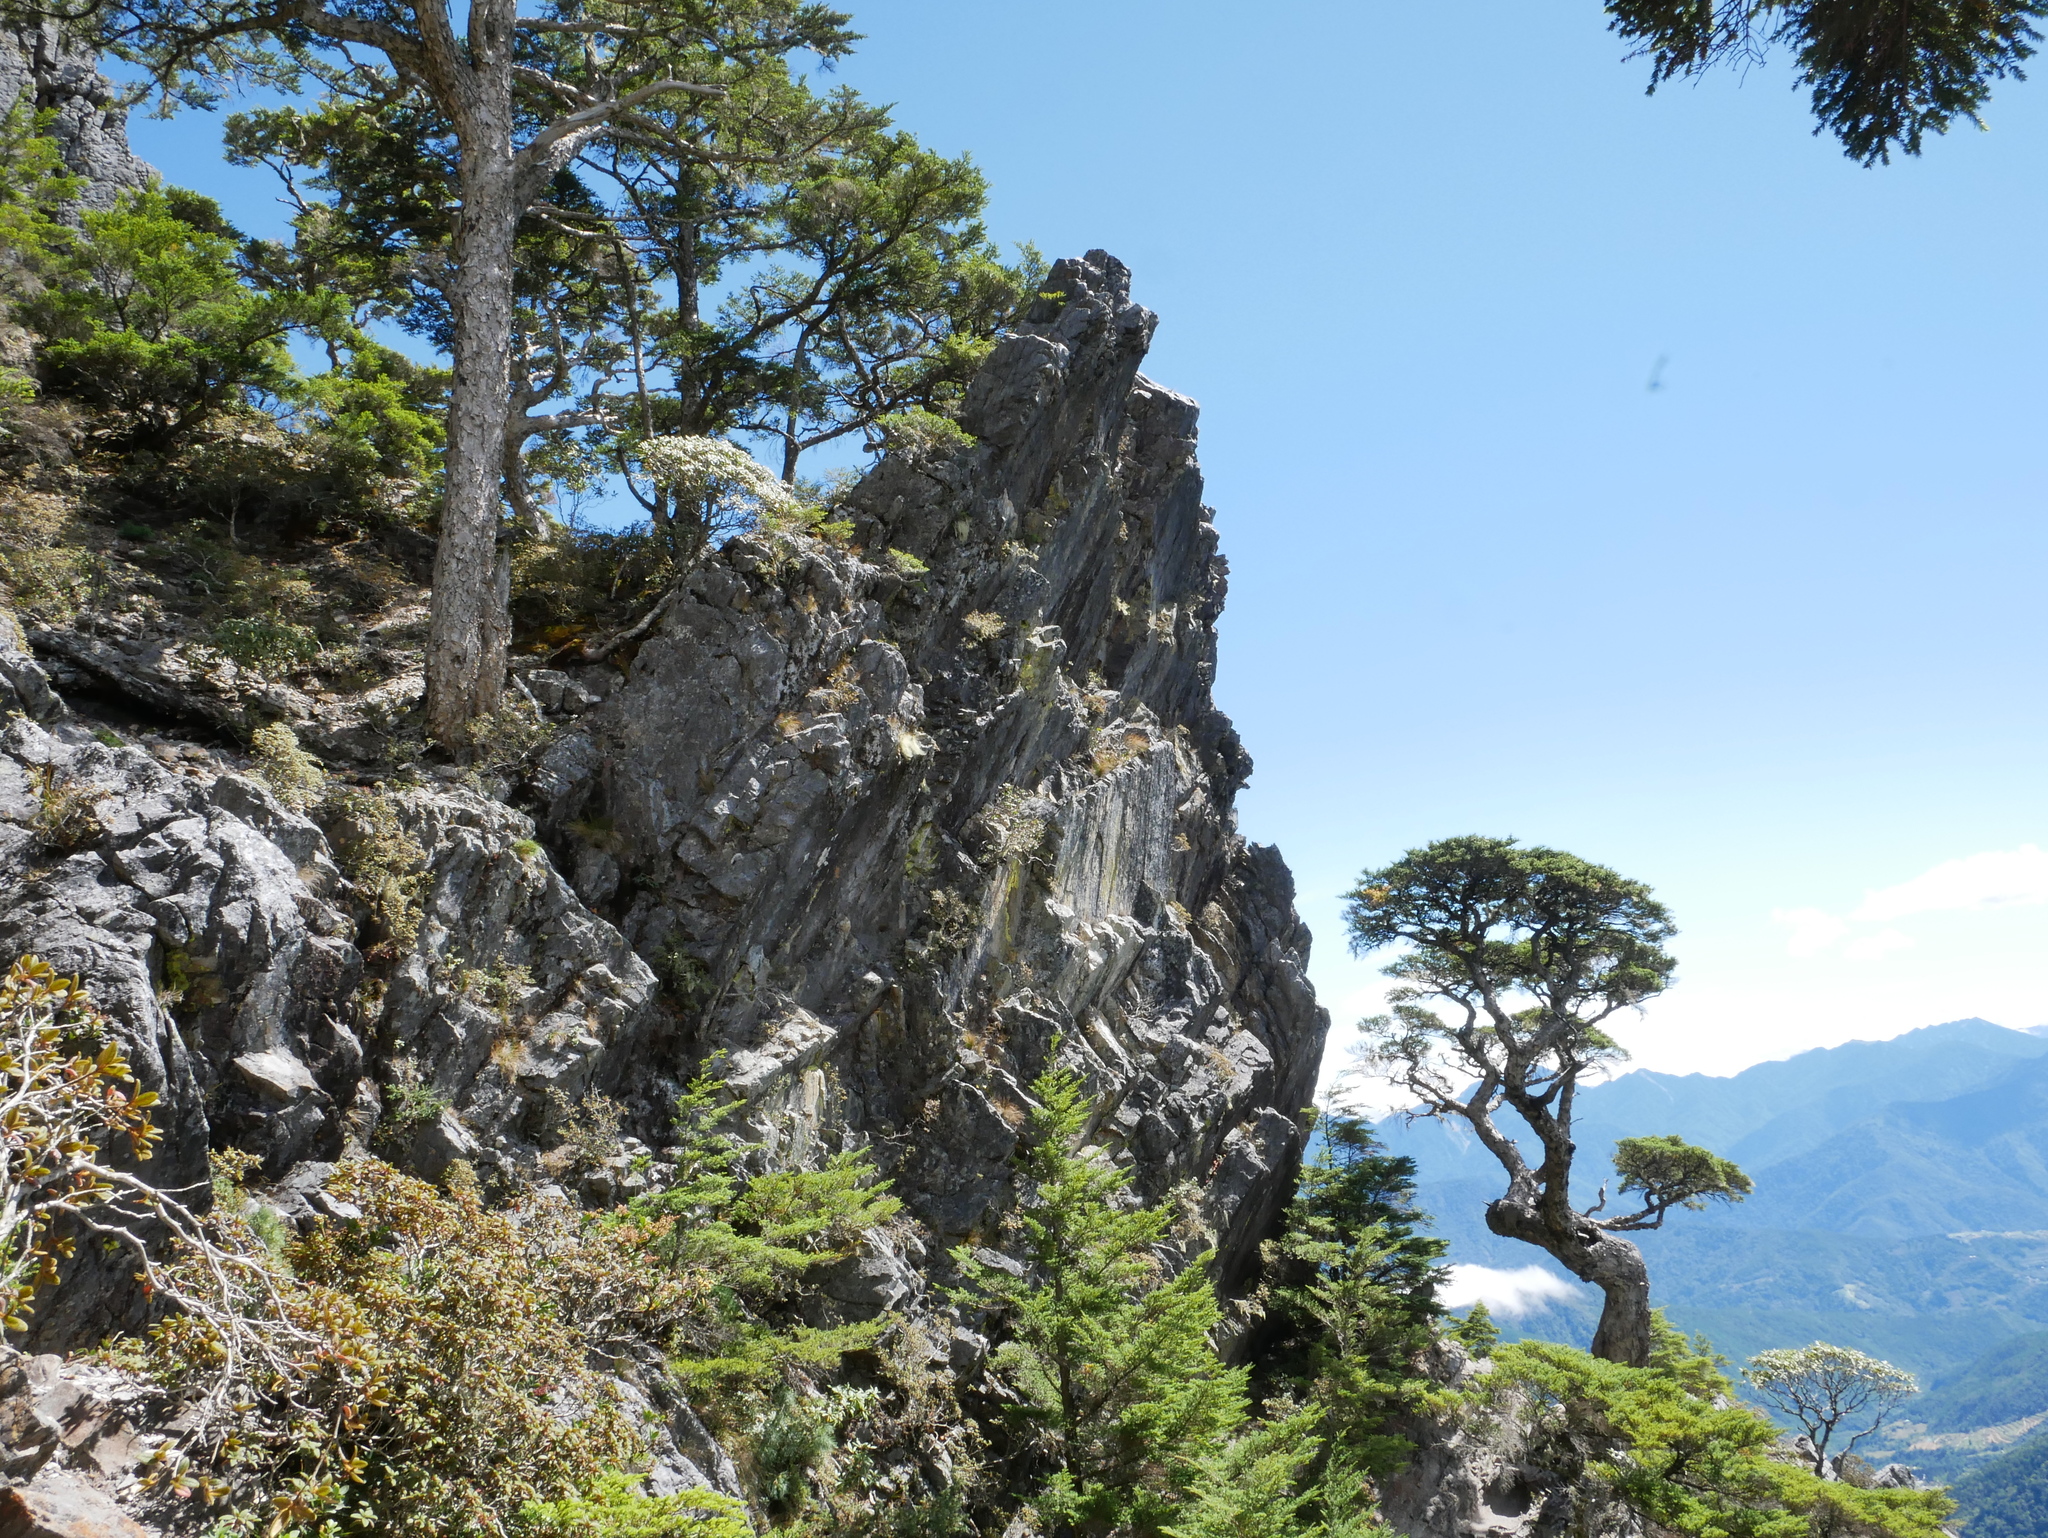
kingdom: Plantae
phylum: Tracheophyta
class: Pinopsida
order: Pinales
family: Pinaceae
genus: Tsuga
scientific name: Tsuga chinensis
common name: Chinese hemlock
